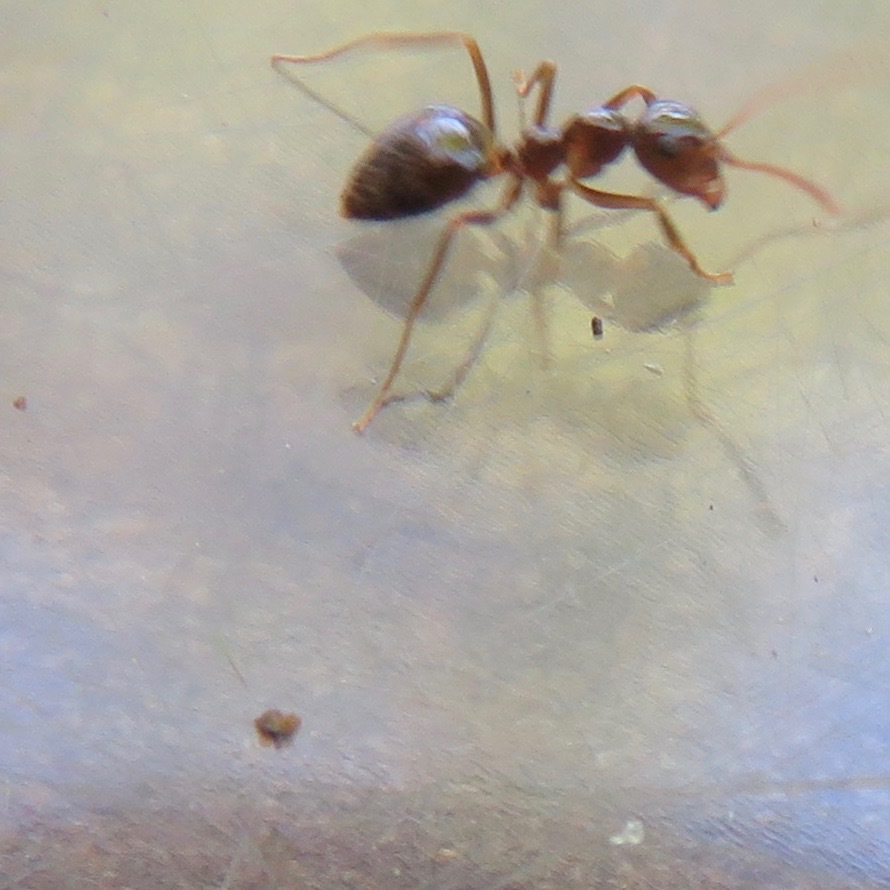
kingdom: Animalia
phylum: Arthropoda
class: Insecta
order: Hymenoptera
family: Formicidae
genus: Prenolepis
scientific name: Prenolepis imparis
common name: Small honey ant
